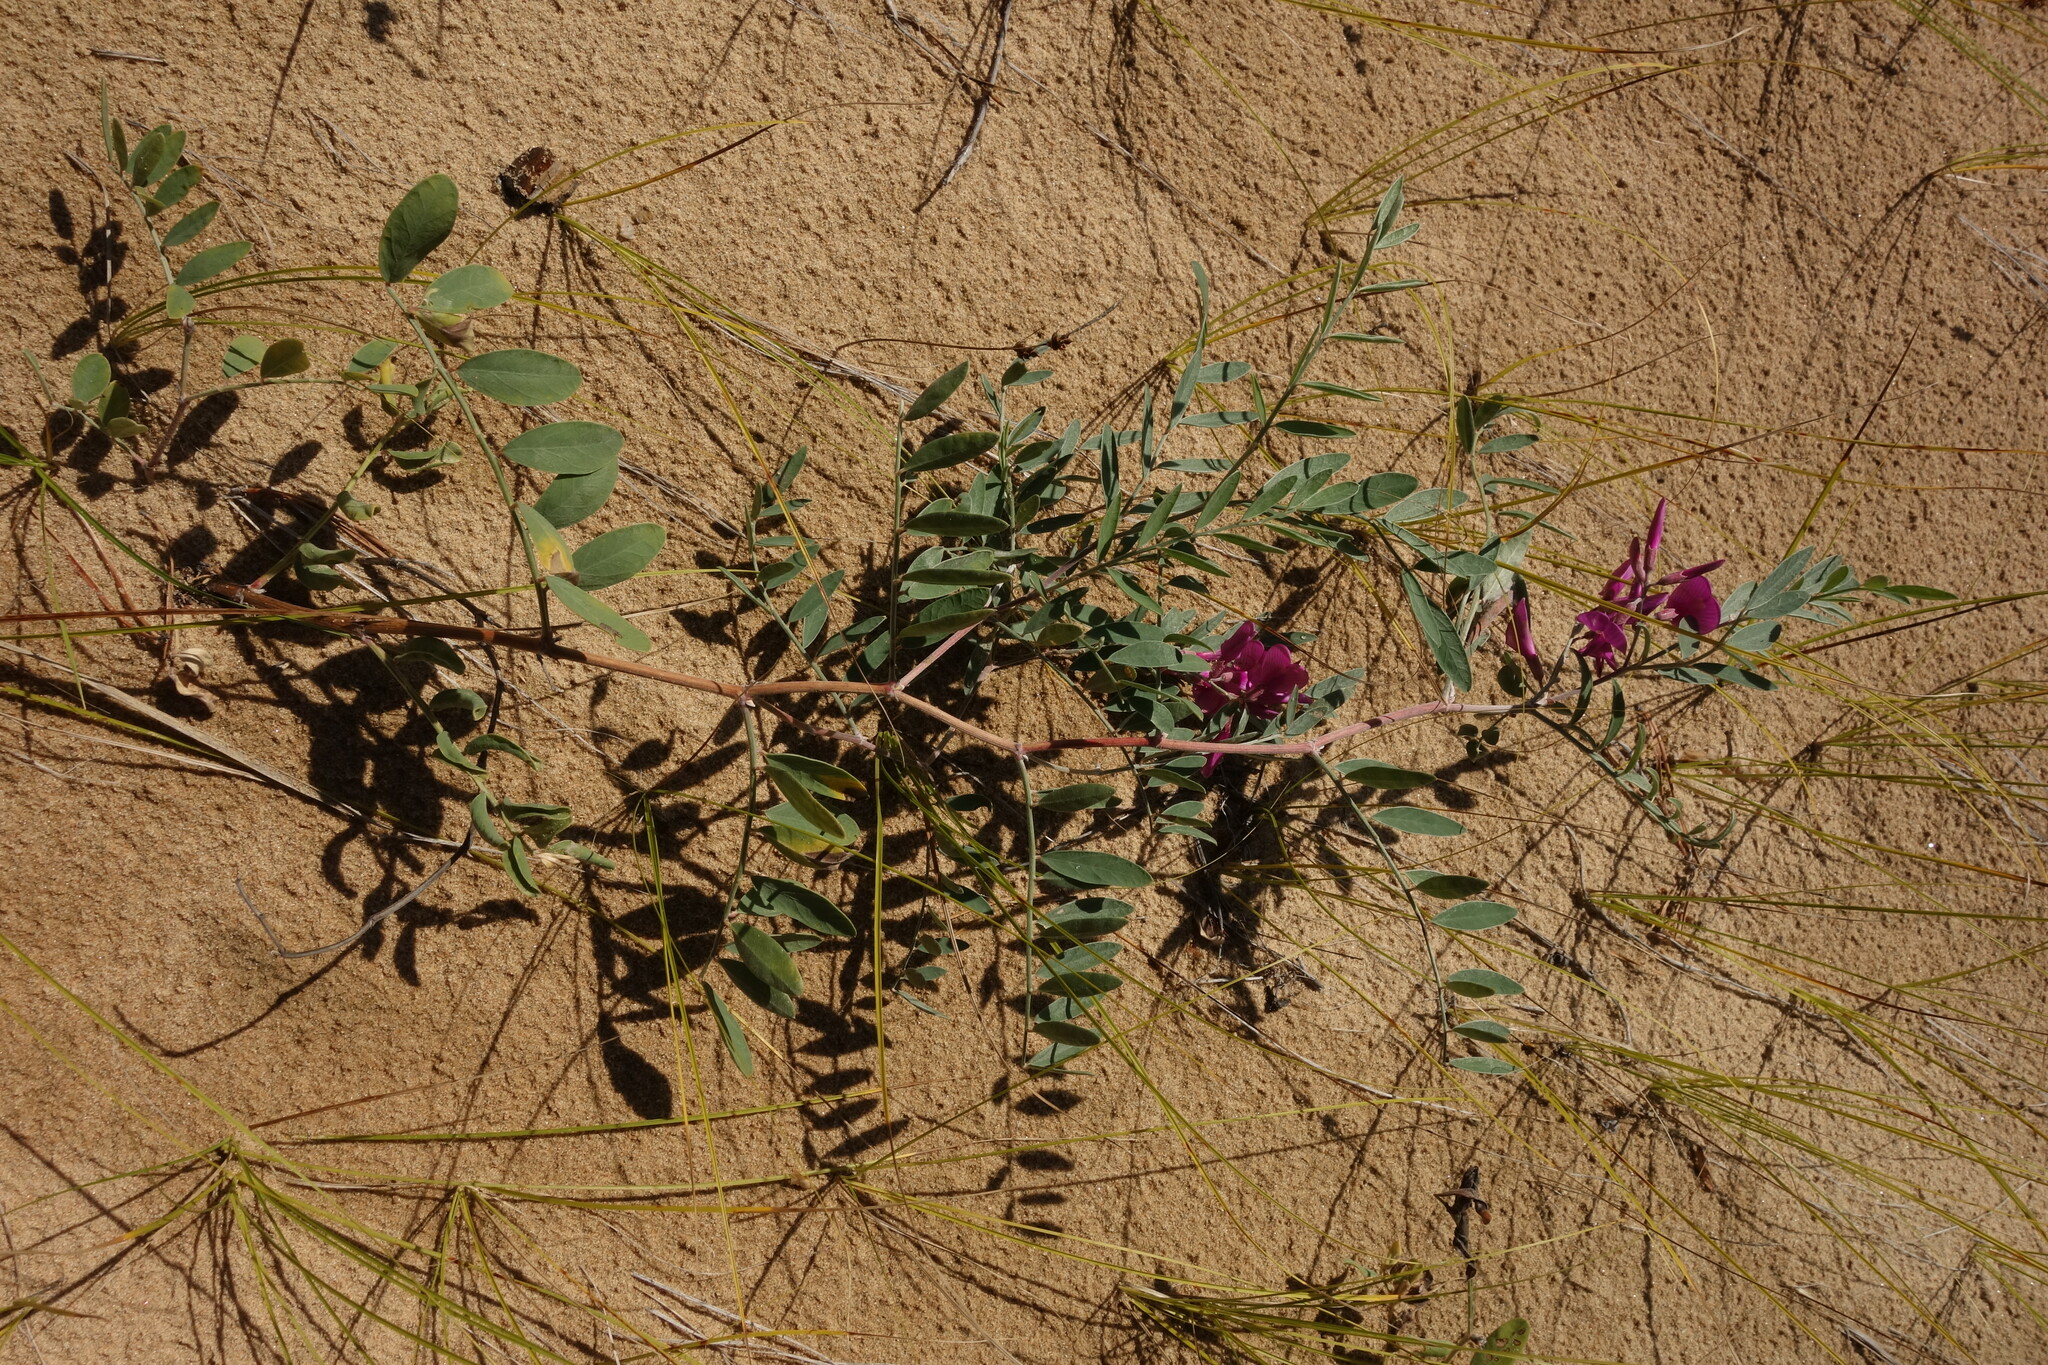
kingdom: Plantae
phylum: Tracheophyta
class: Magnoliopsida
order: Fabales
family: Fabaceae
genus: Corethrodendron
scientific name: Corethrodendron fruticosum
